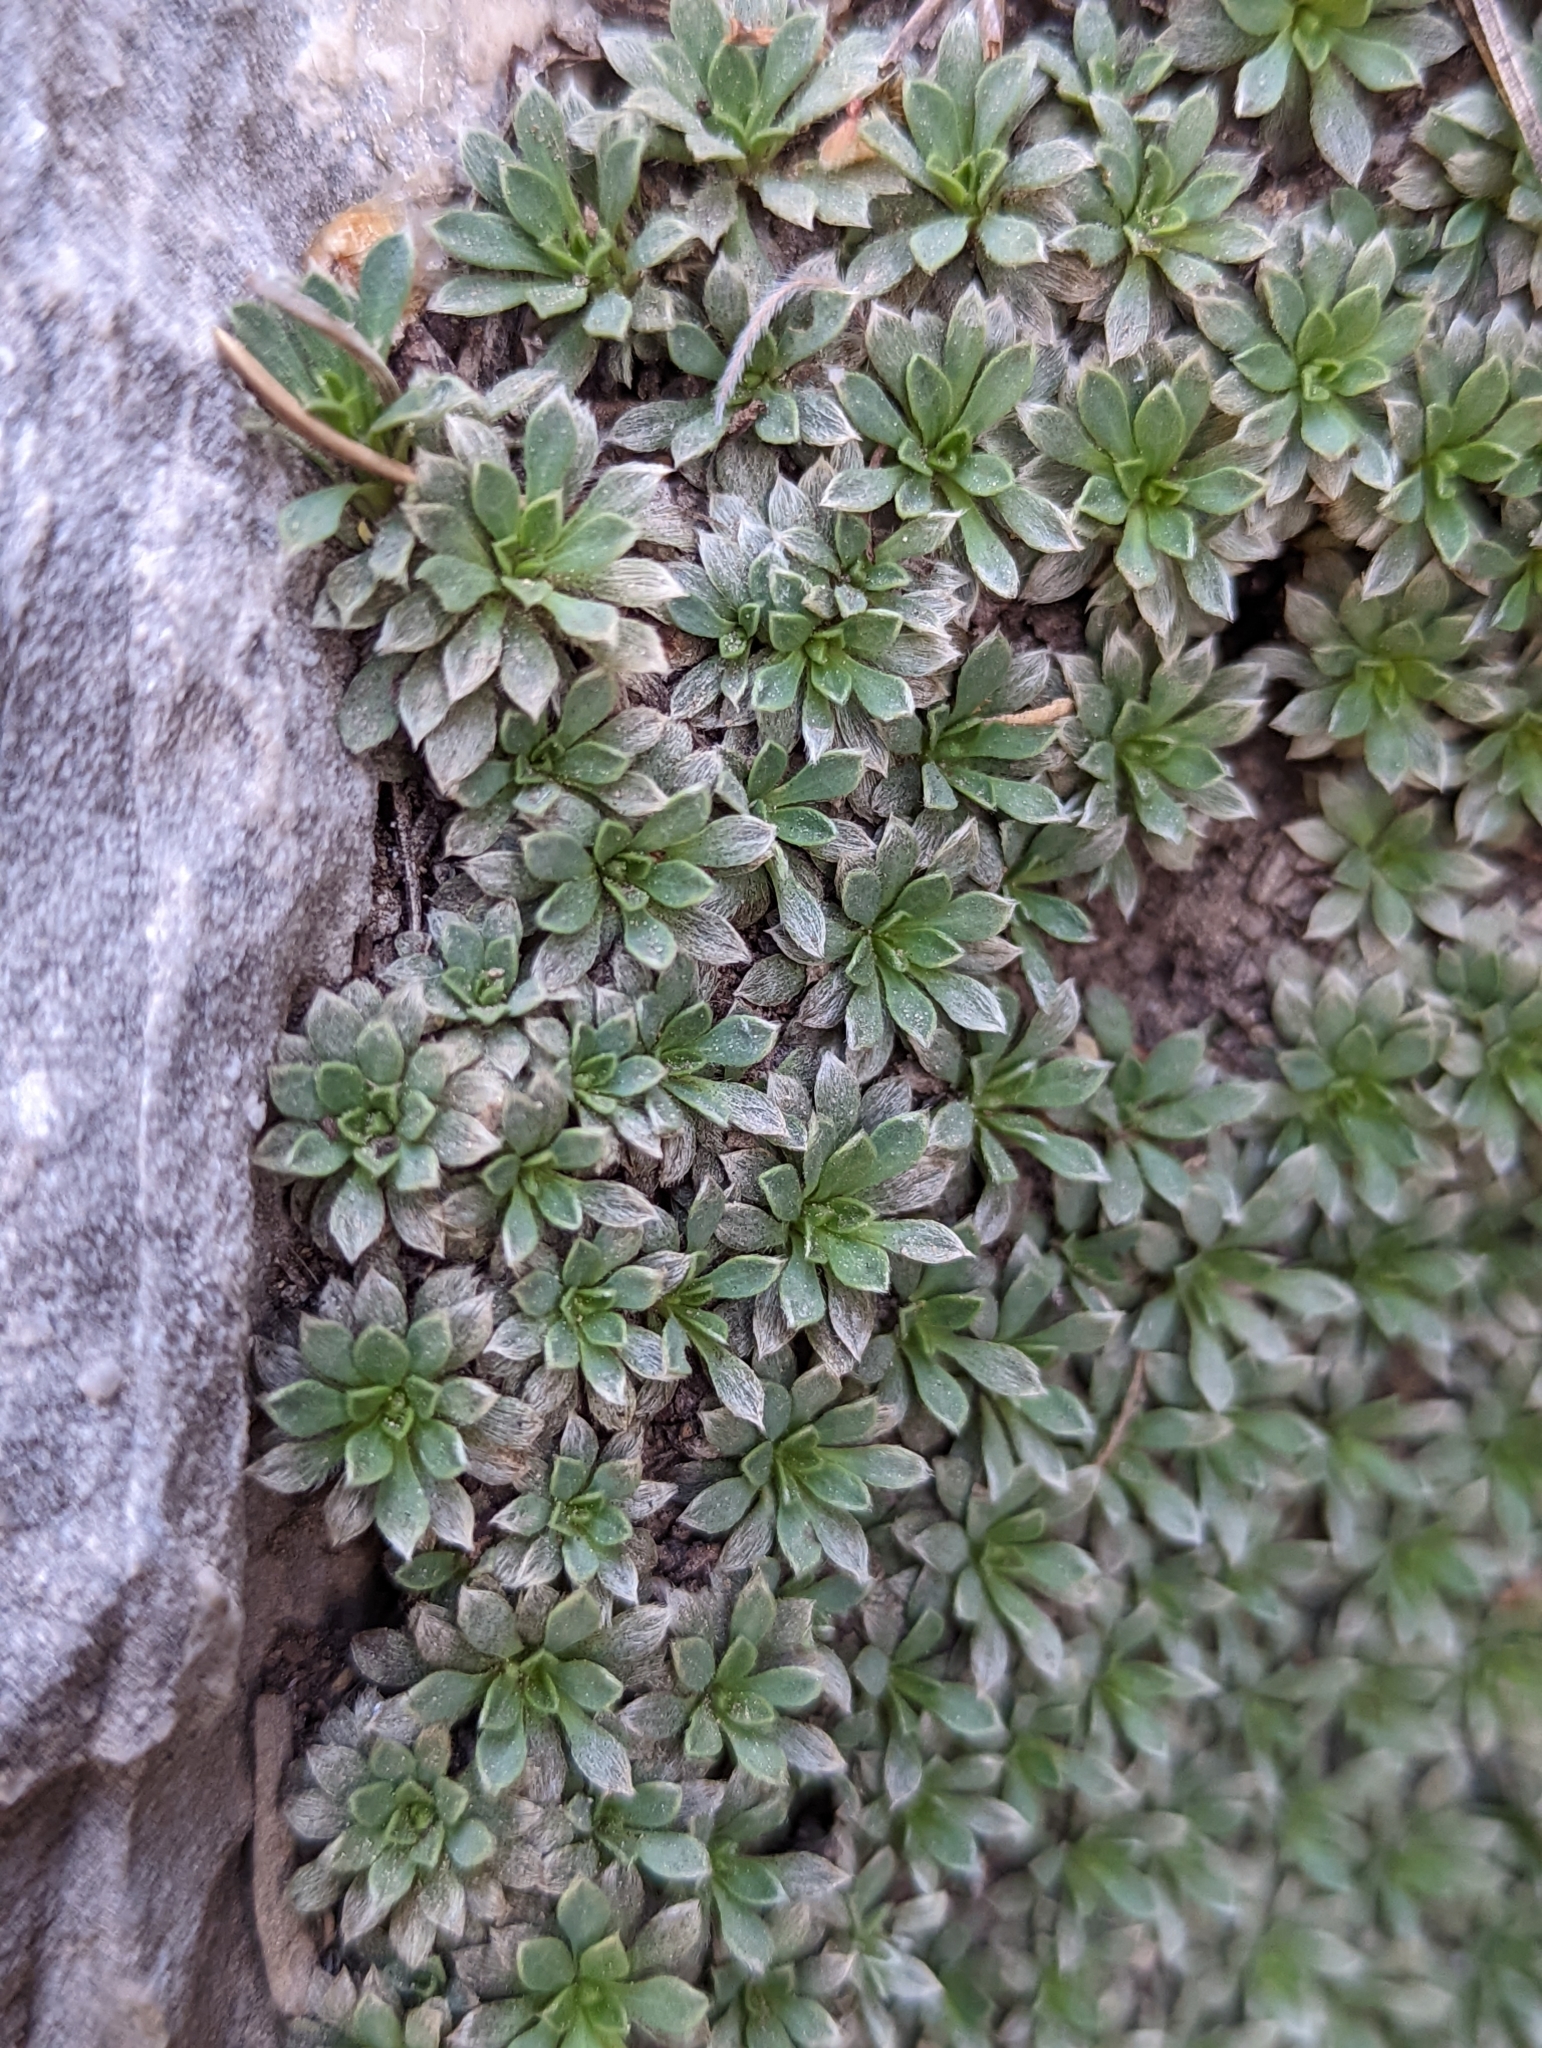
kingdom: Plantae
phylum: Tracheophyta
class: Magnoliopsida
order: Rosales
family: Rosaceae
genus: Petrophytum
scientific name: Petrophytum caespitosum
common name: Mat rockspirea
